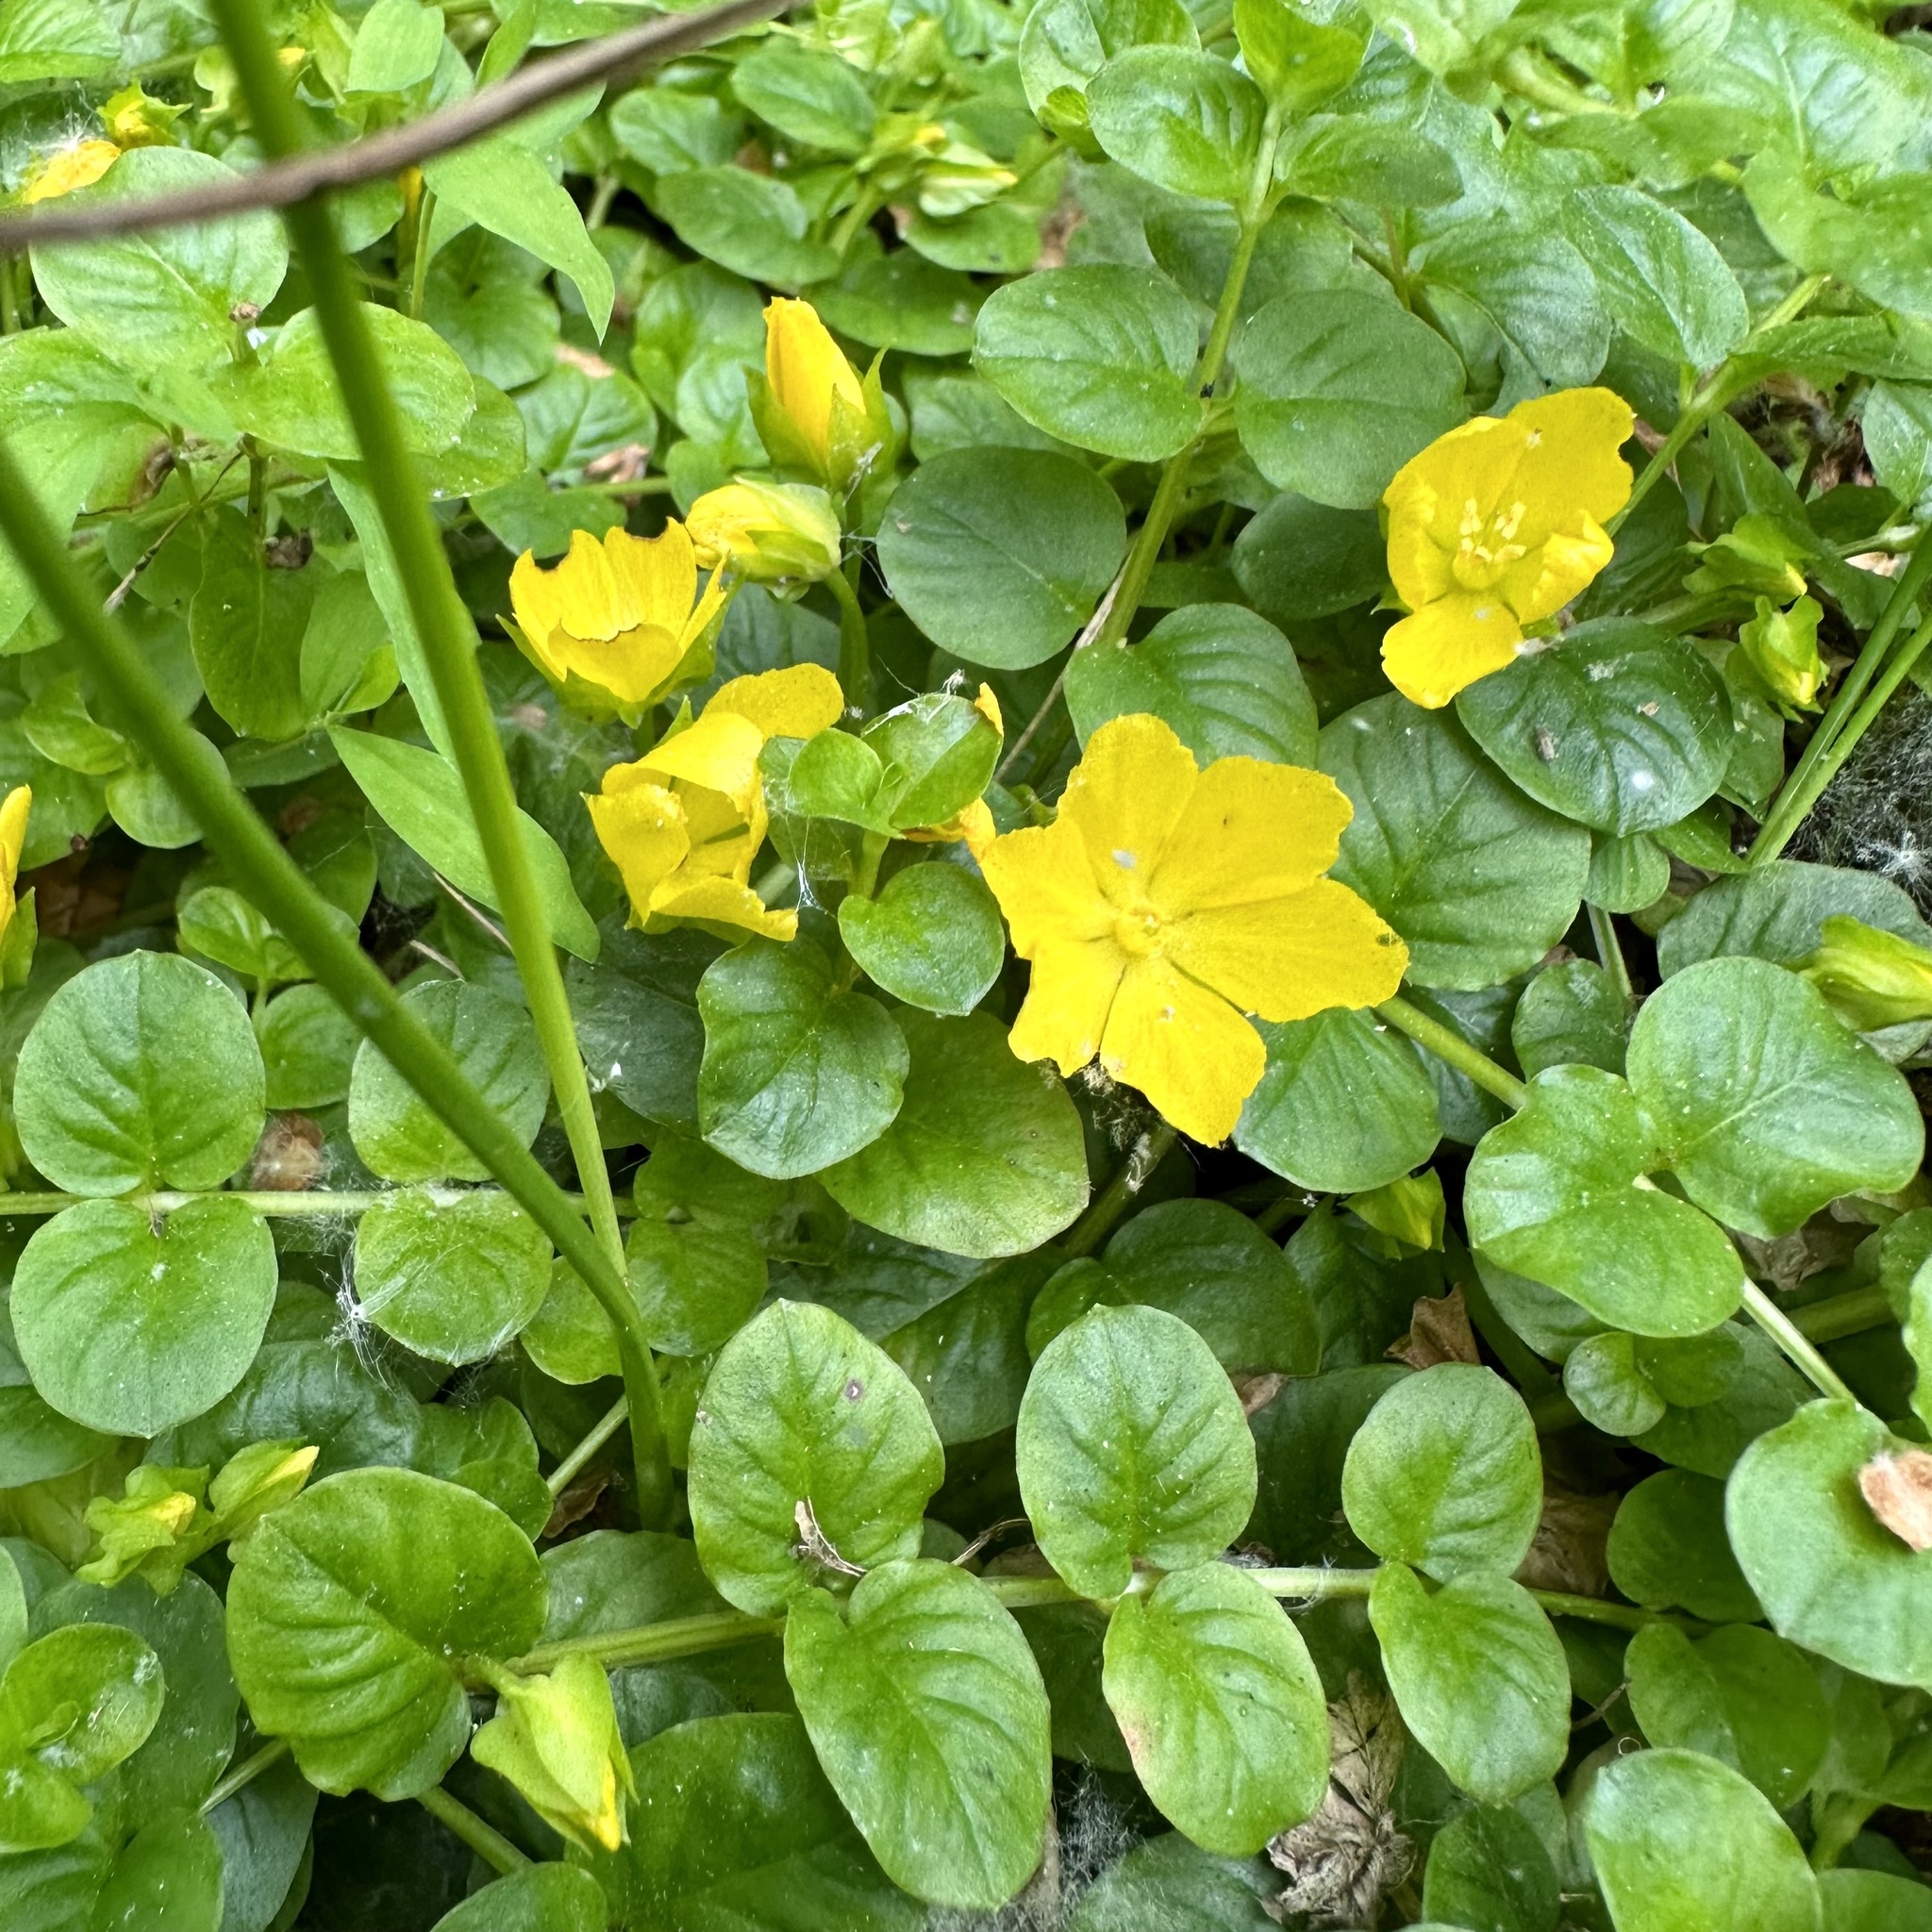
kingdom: Plantae
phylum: Tracheophyta
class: Magnoliopsida
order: Ericales
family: Primulaceae
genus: Lysimachia
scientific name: Lysimachia nummularia
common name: Moneywort
